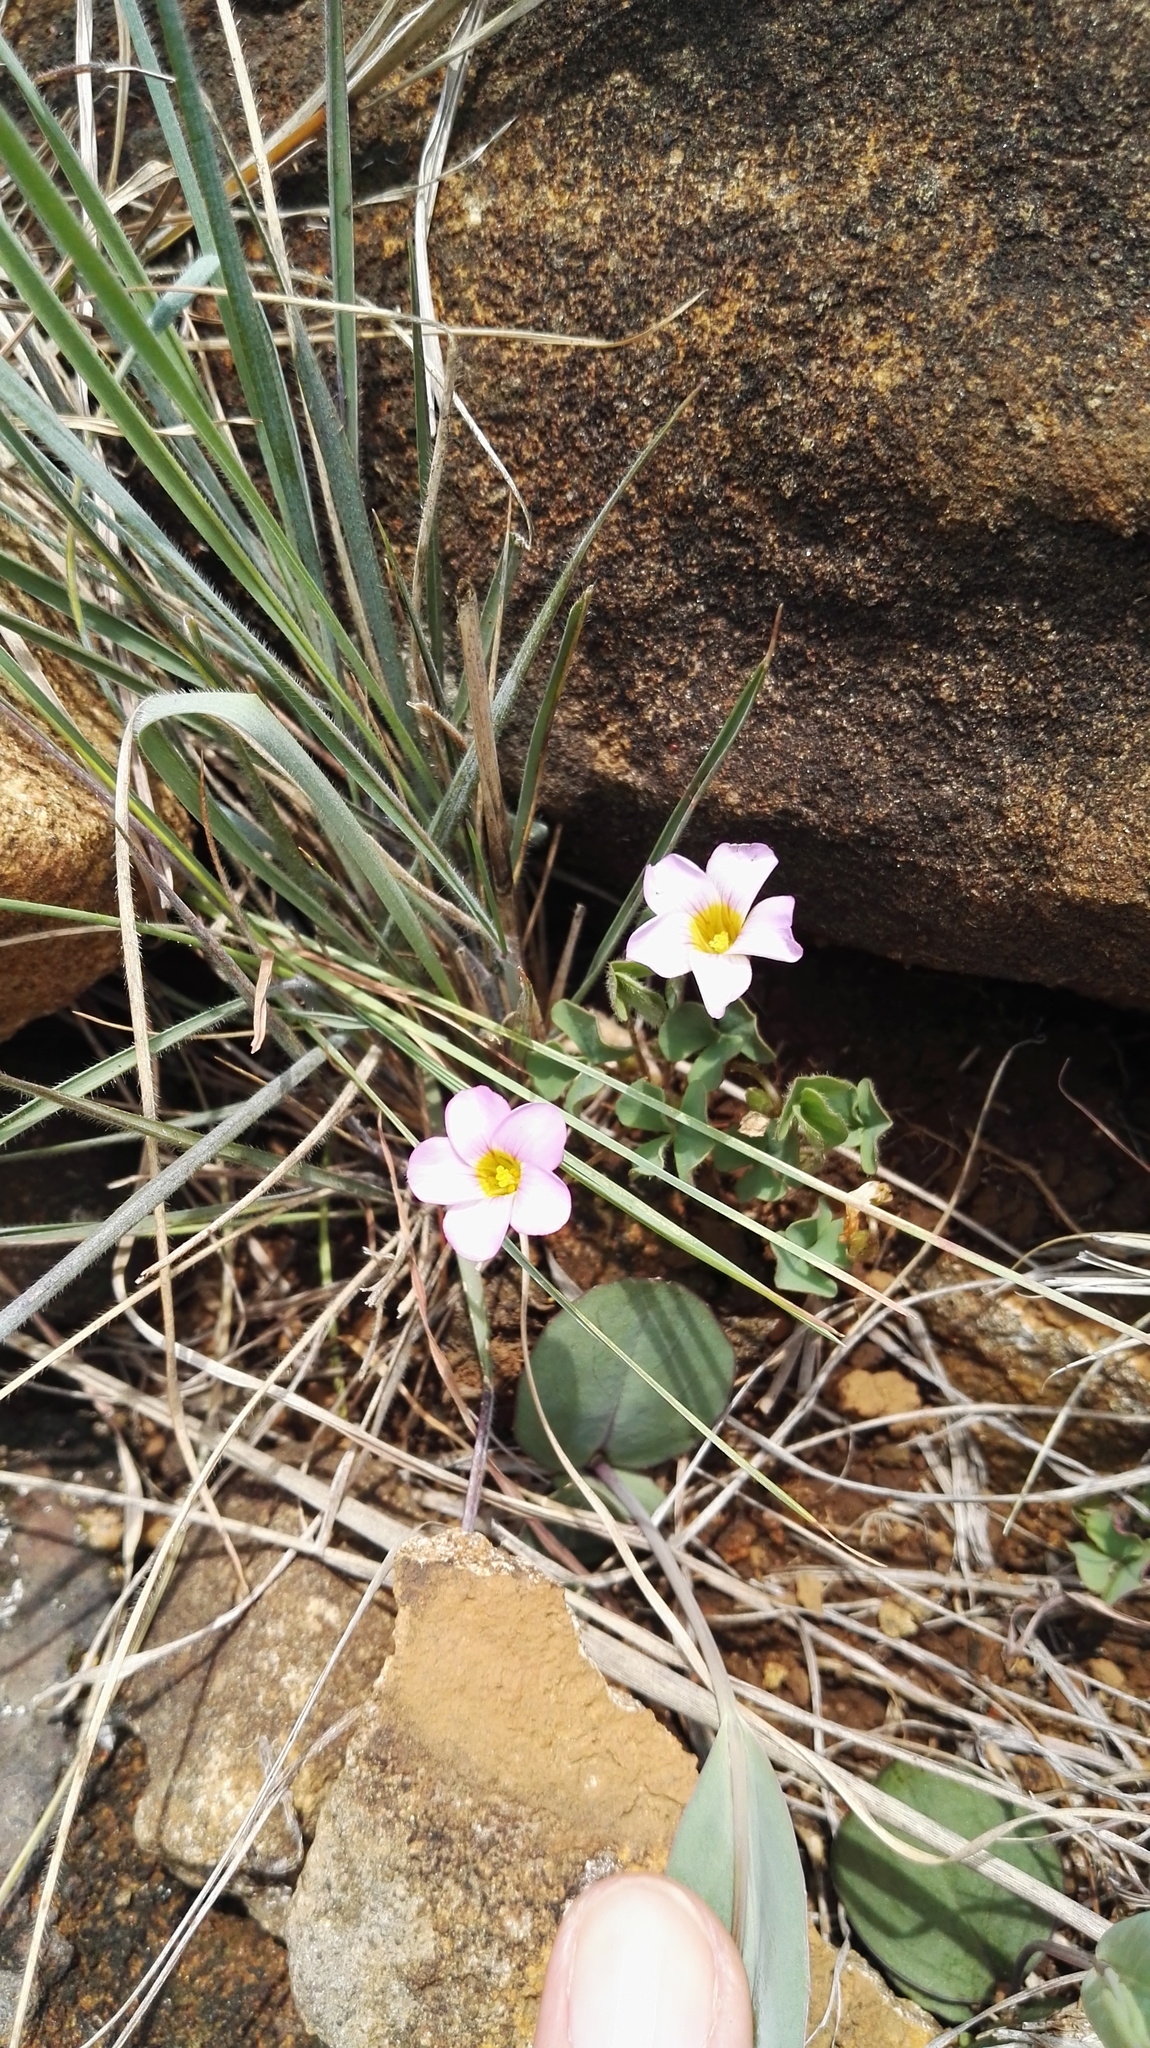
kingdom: Plantae
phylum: Tracheophyta
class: Magnoliopsida
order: Oxalidales
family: Oxalidaceae
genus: Oxalis
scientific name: Oxalis obliquifolia
